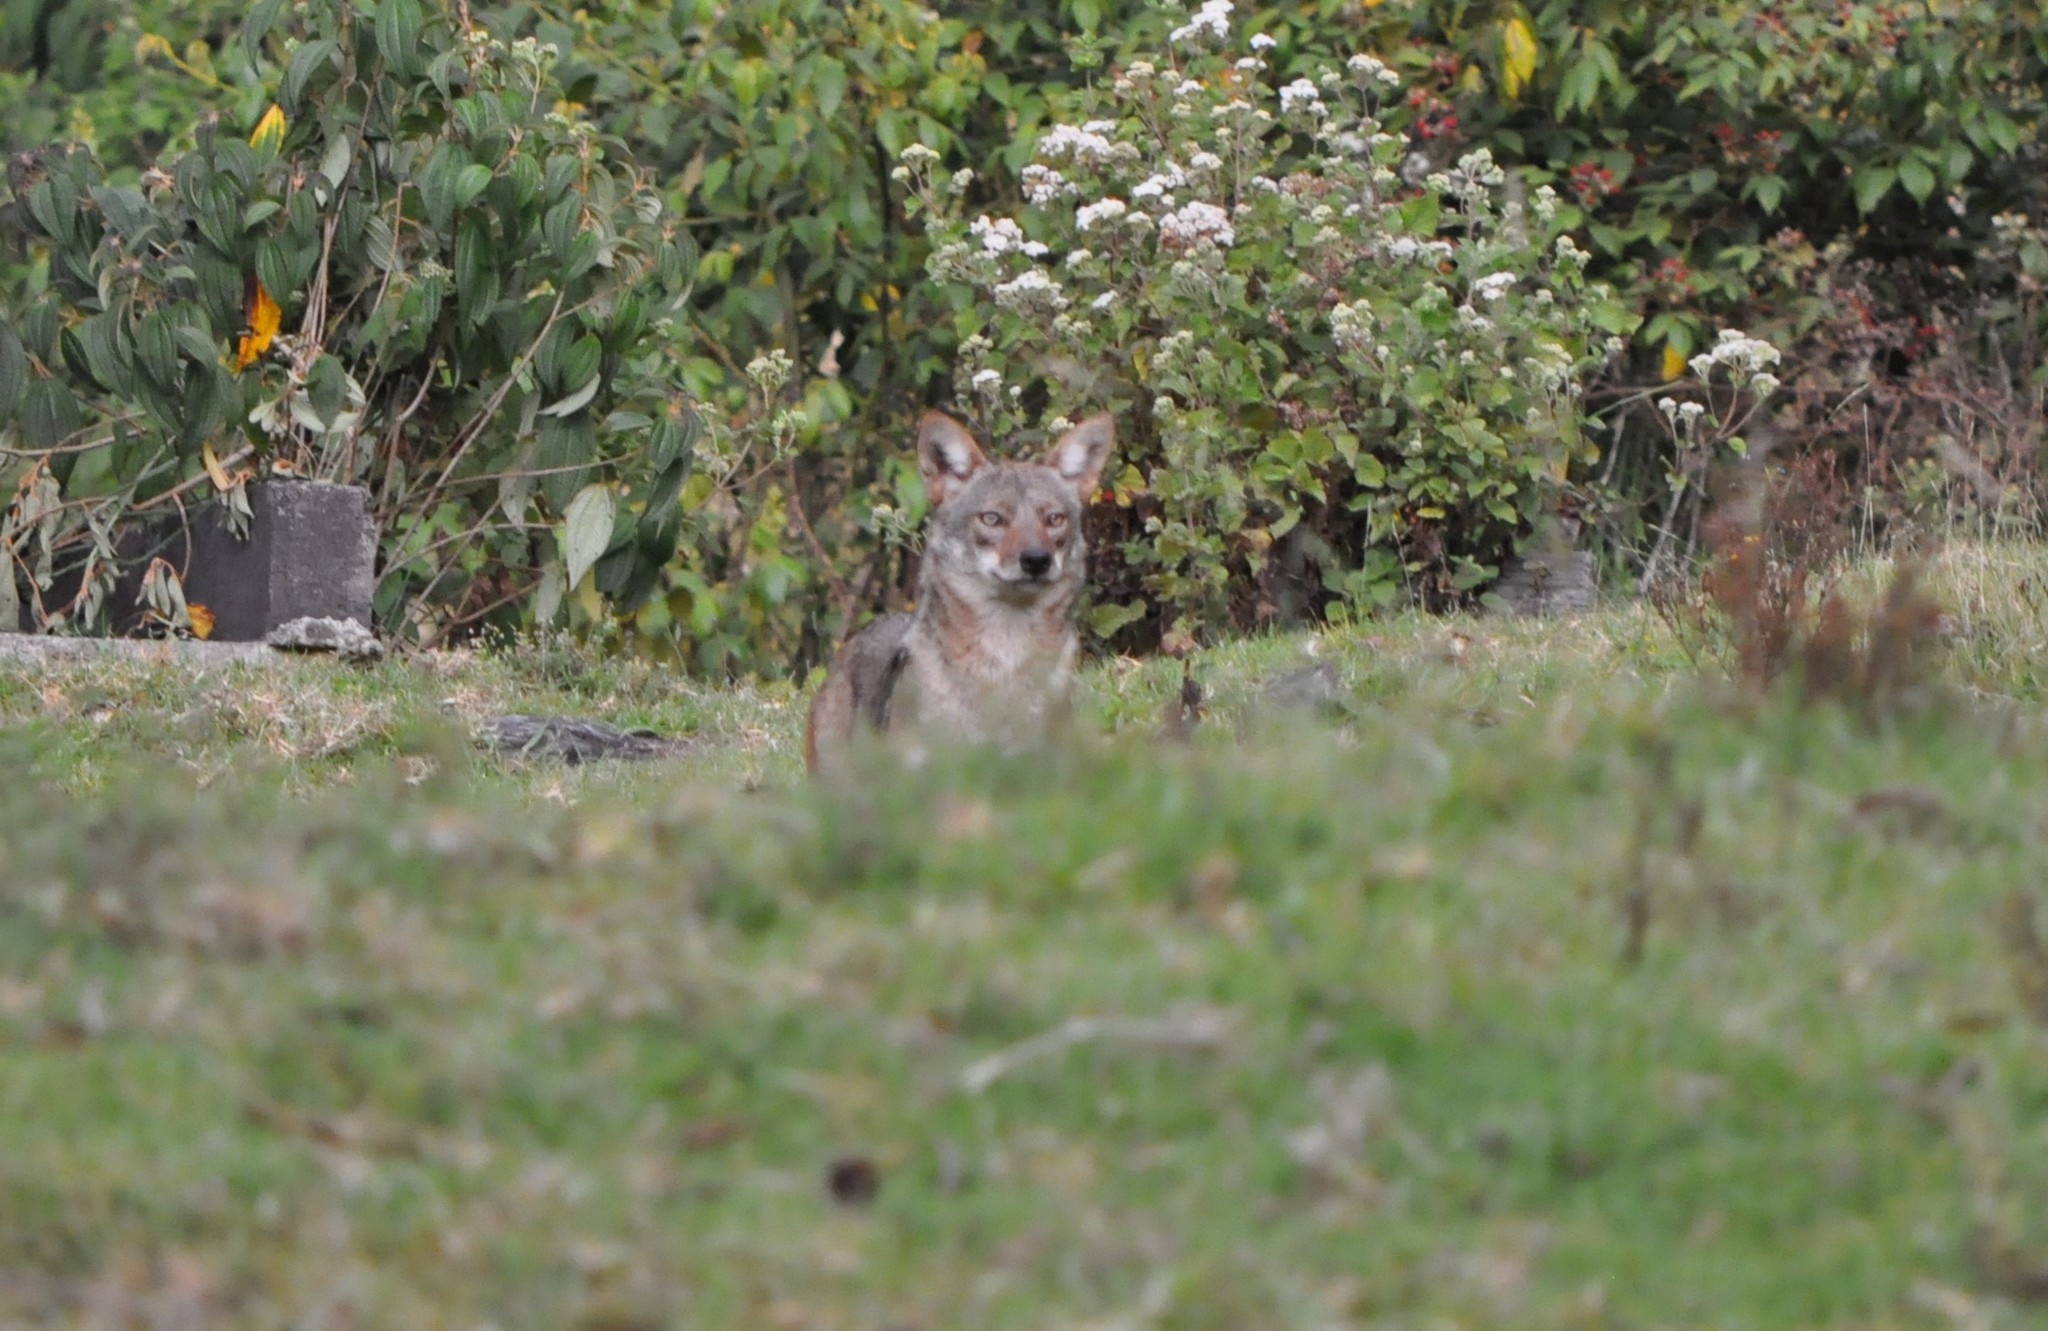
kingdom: Animalia
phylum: Chordata
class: Mammalia
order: Carnivora
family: Canidae
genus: Canis
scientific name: Canis latrans
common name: Coyote
